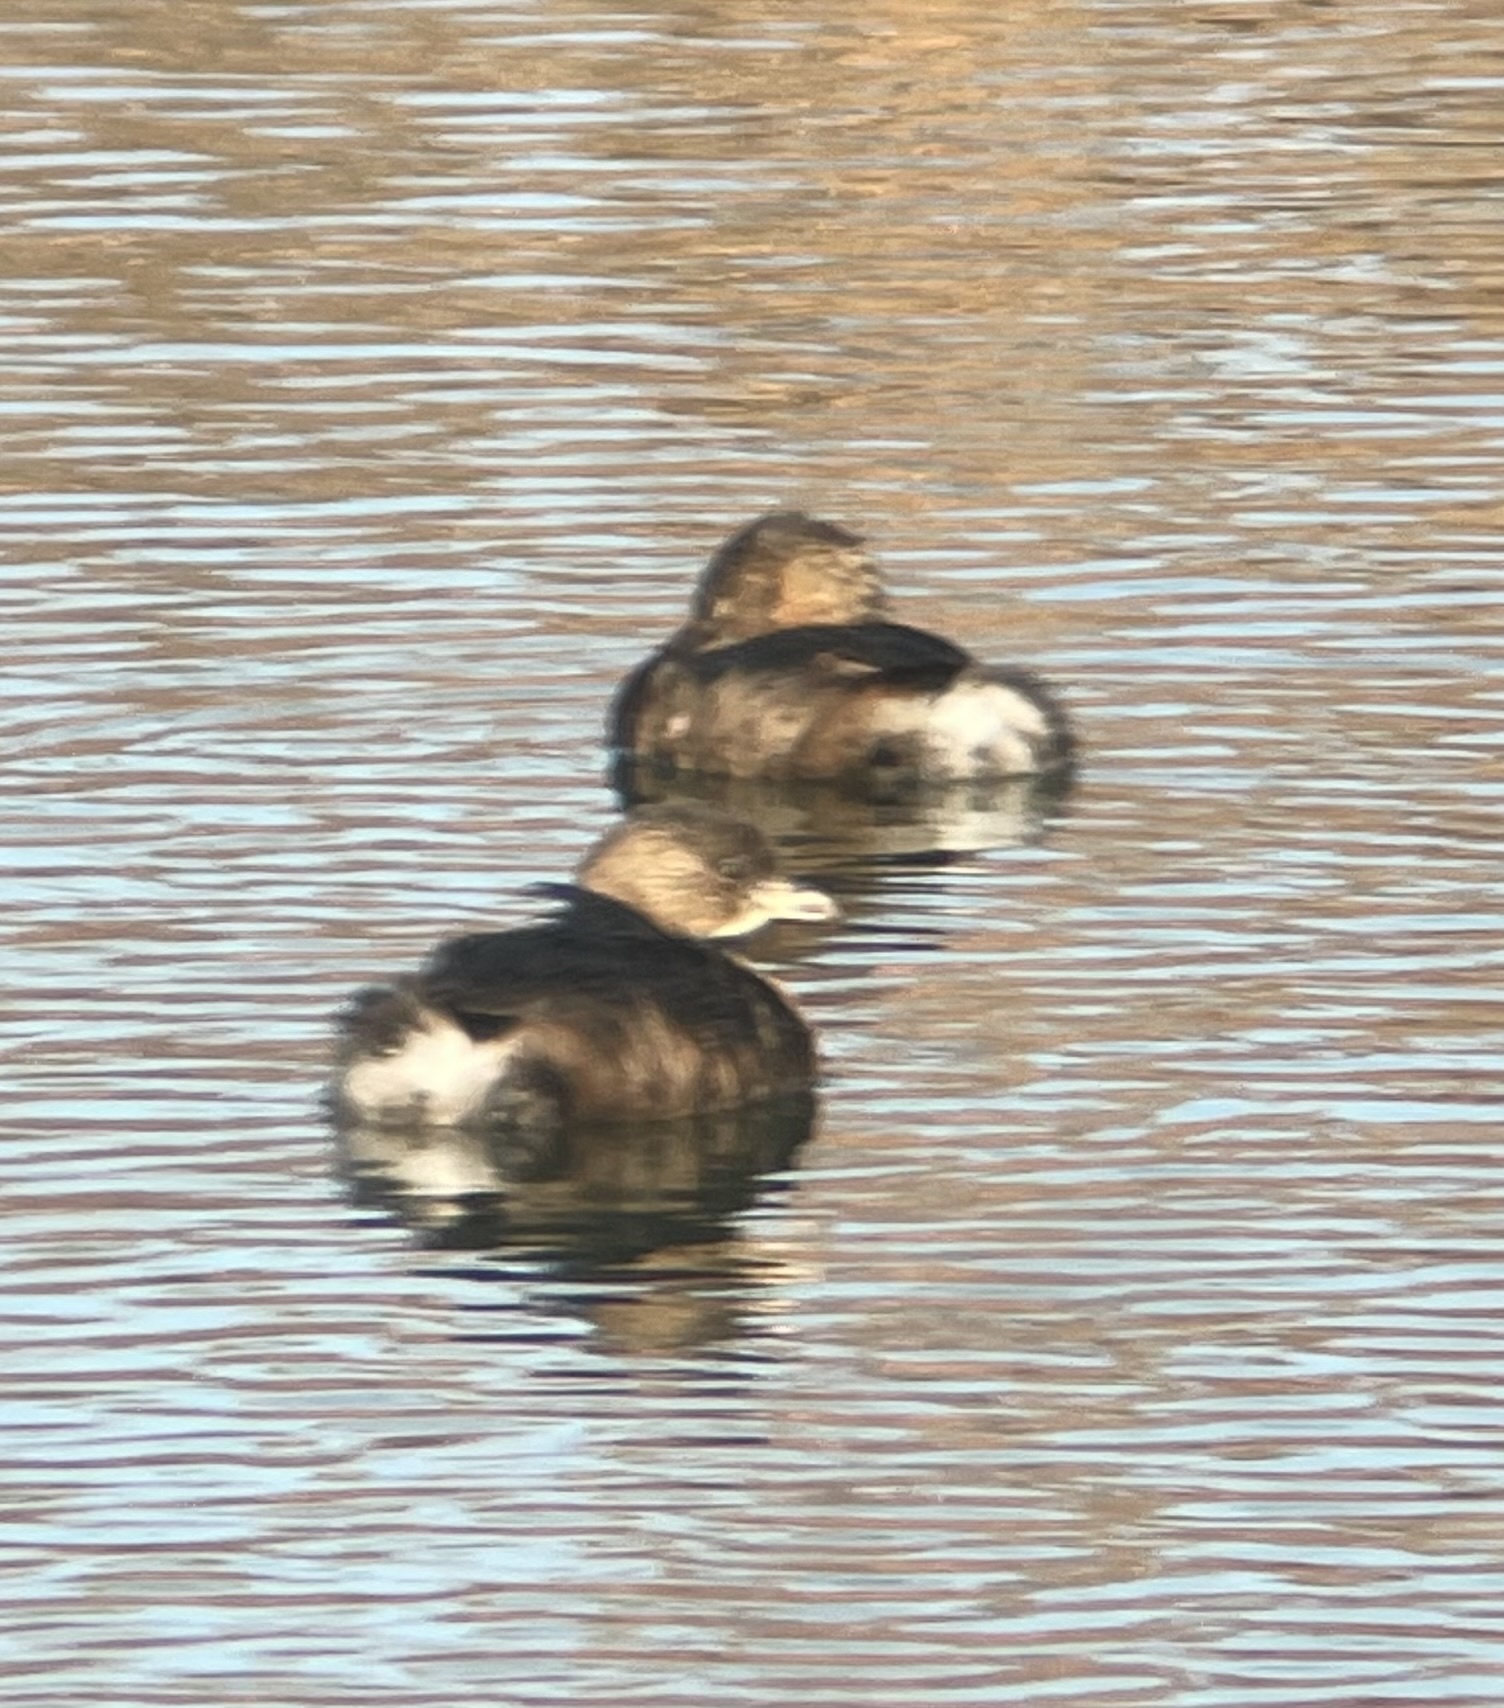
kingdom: Animalia
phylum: Chordata
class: Aves
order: Podicipediformes
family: Podicipedidae
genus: Podilymbus
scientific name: Podilymbus podiceps
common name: Pied-billed grebe
